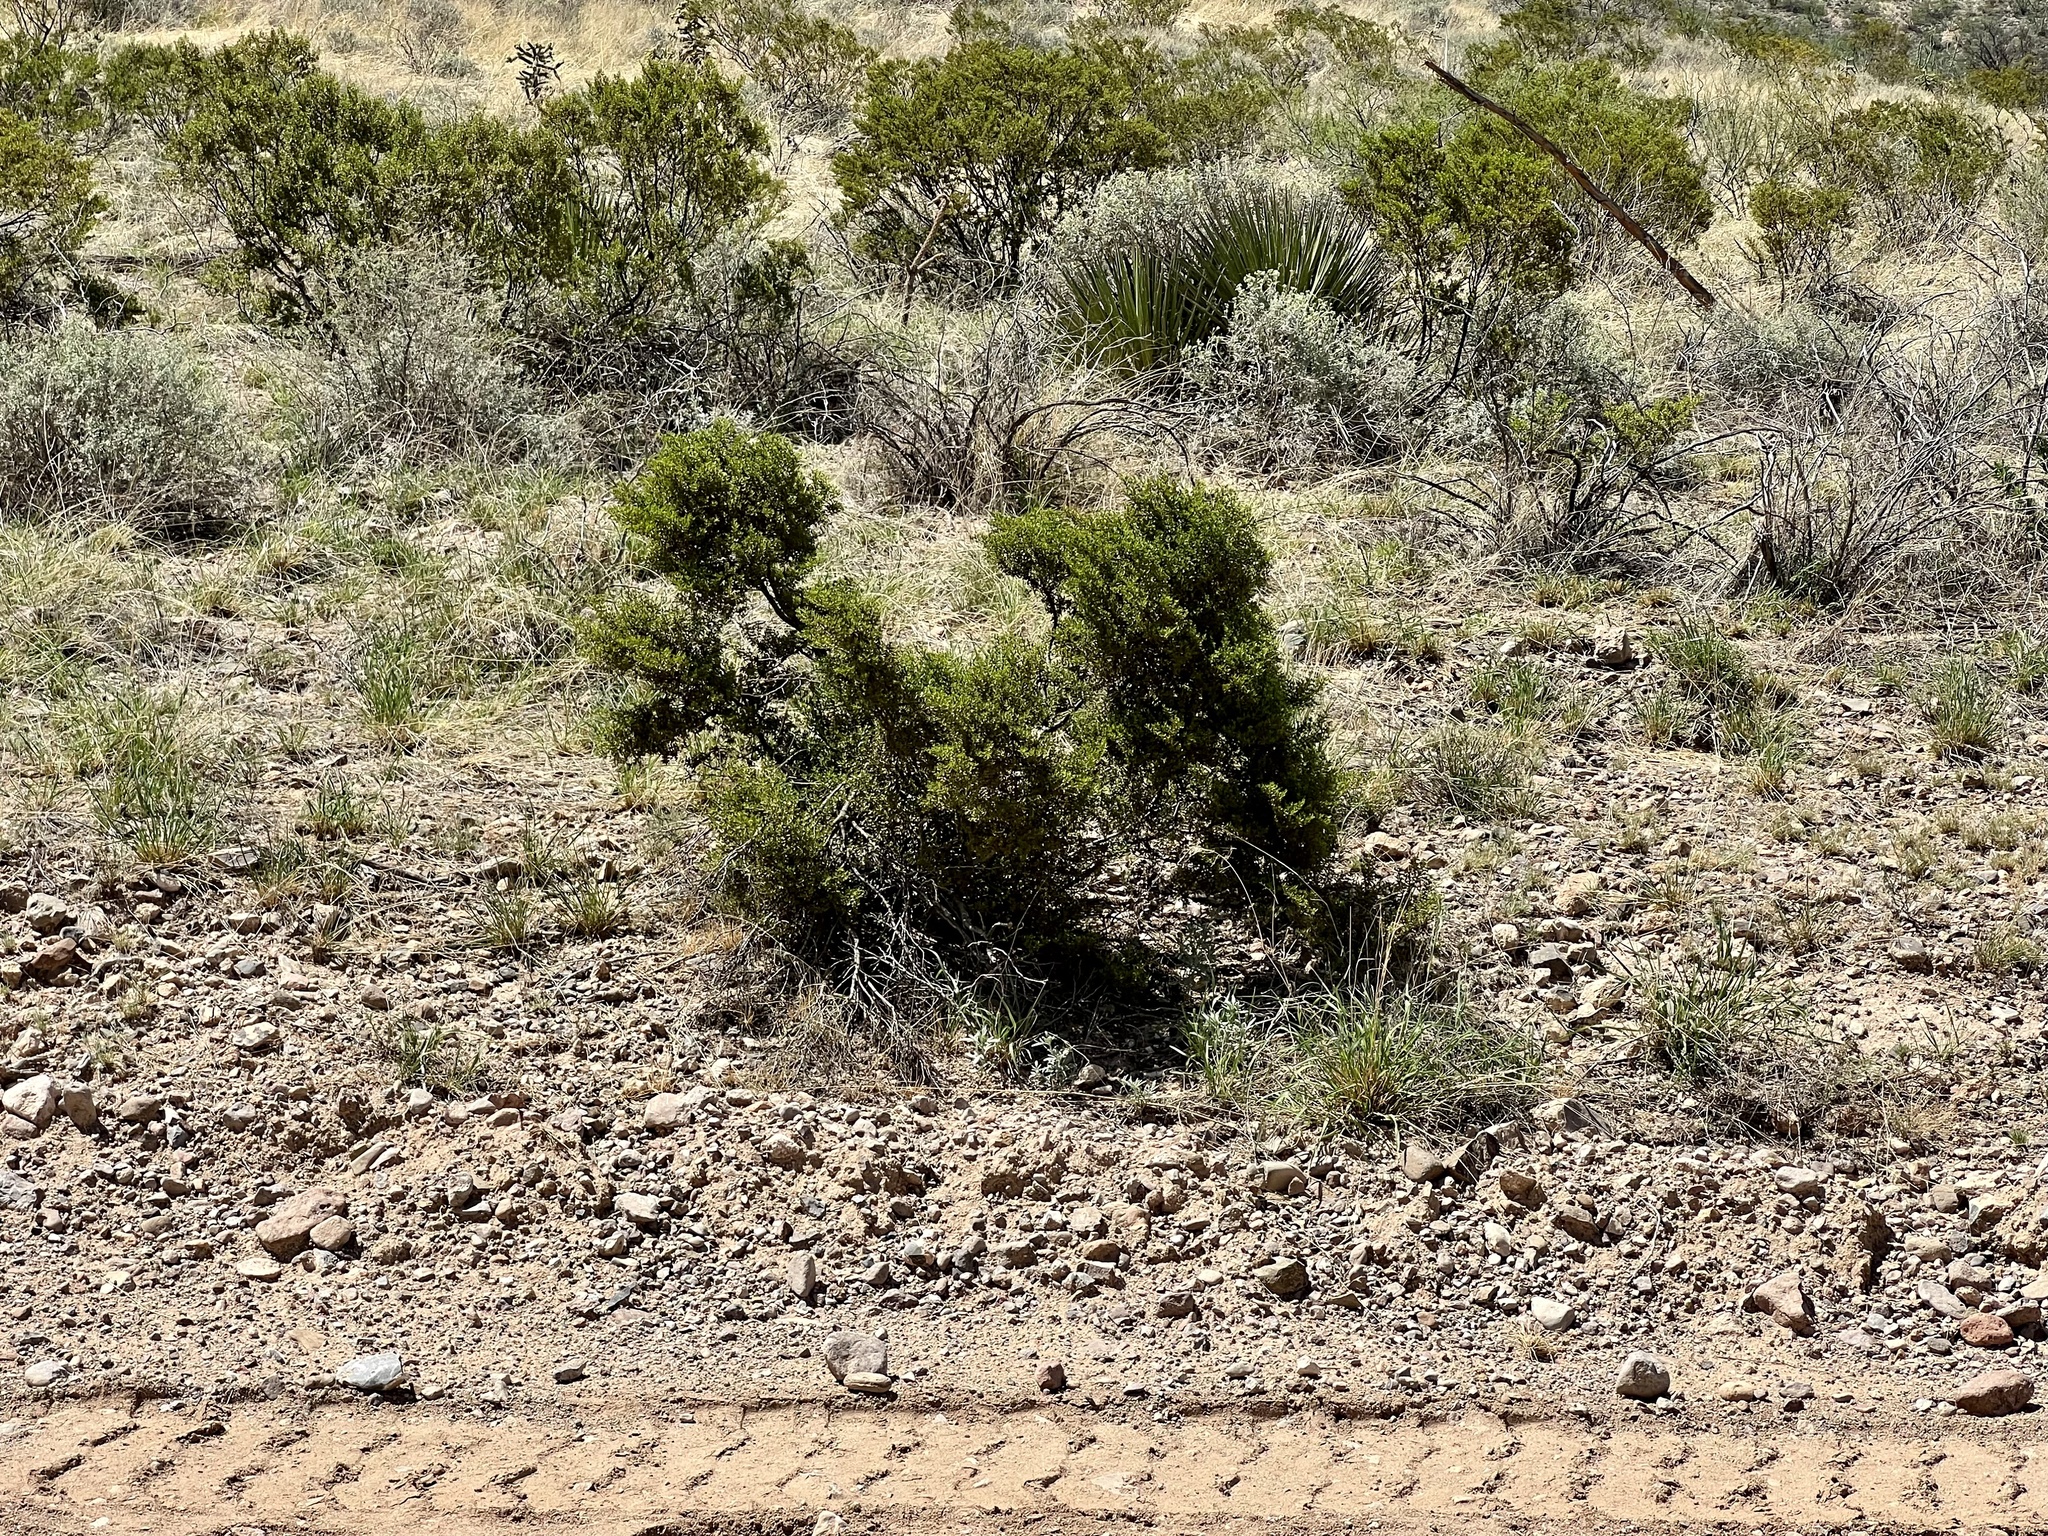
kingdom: Plantae
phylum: Tracheophyta
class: Magnoliopsida
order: Zygophyllales
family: Zygophyllaceae
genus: Larrea
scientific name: Larrea tridentata
